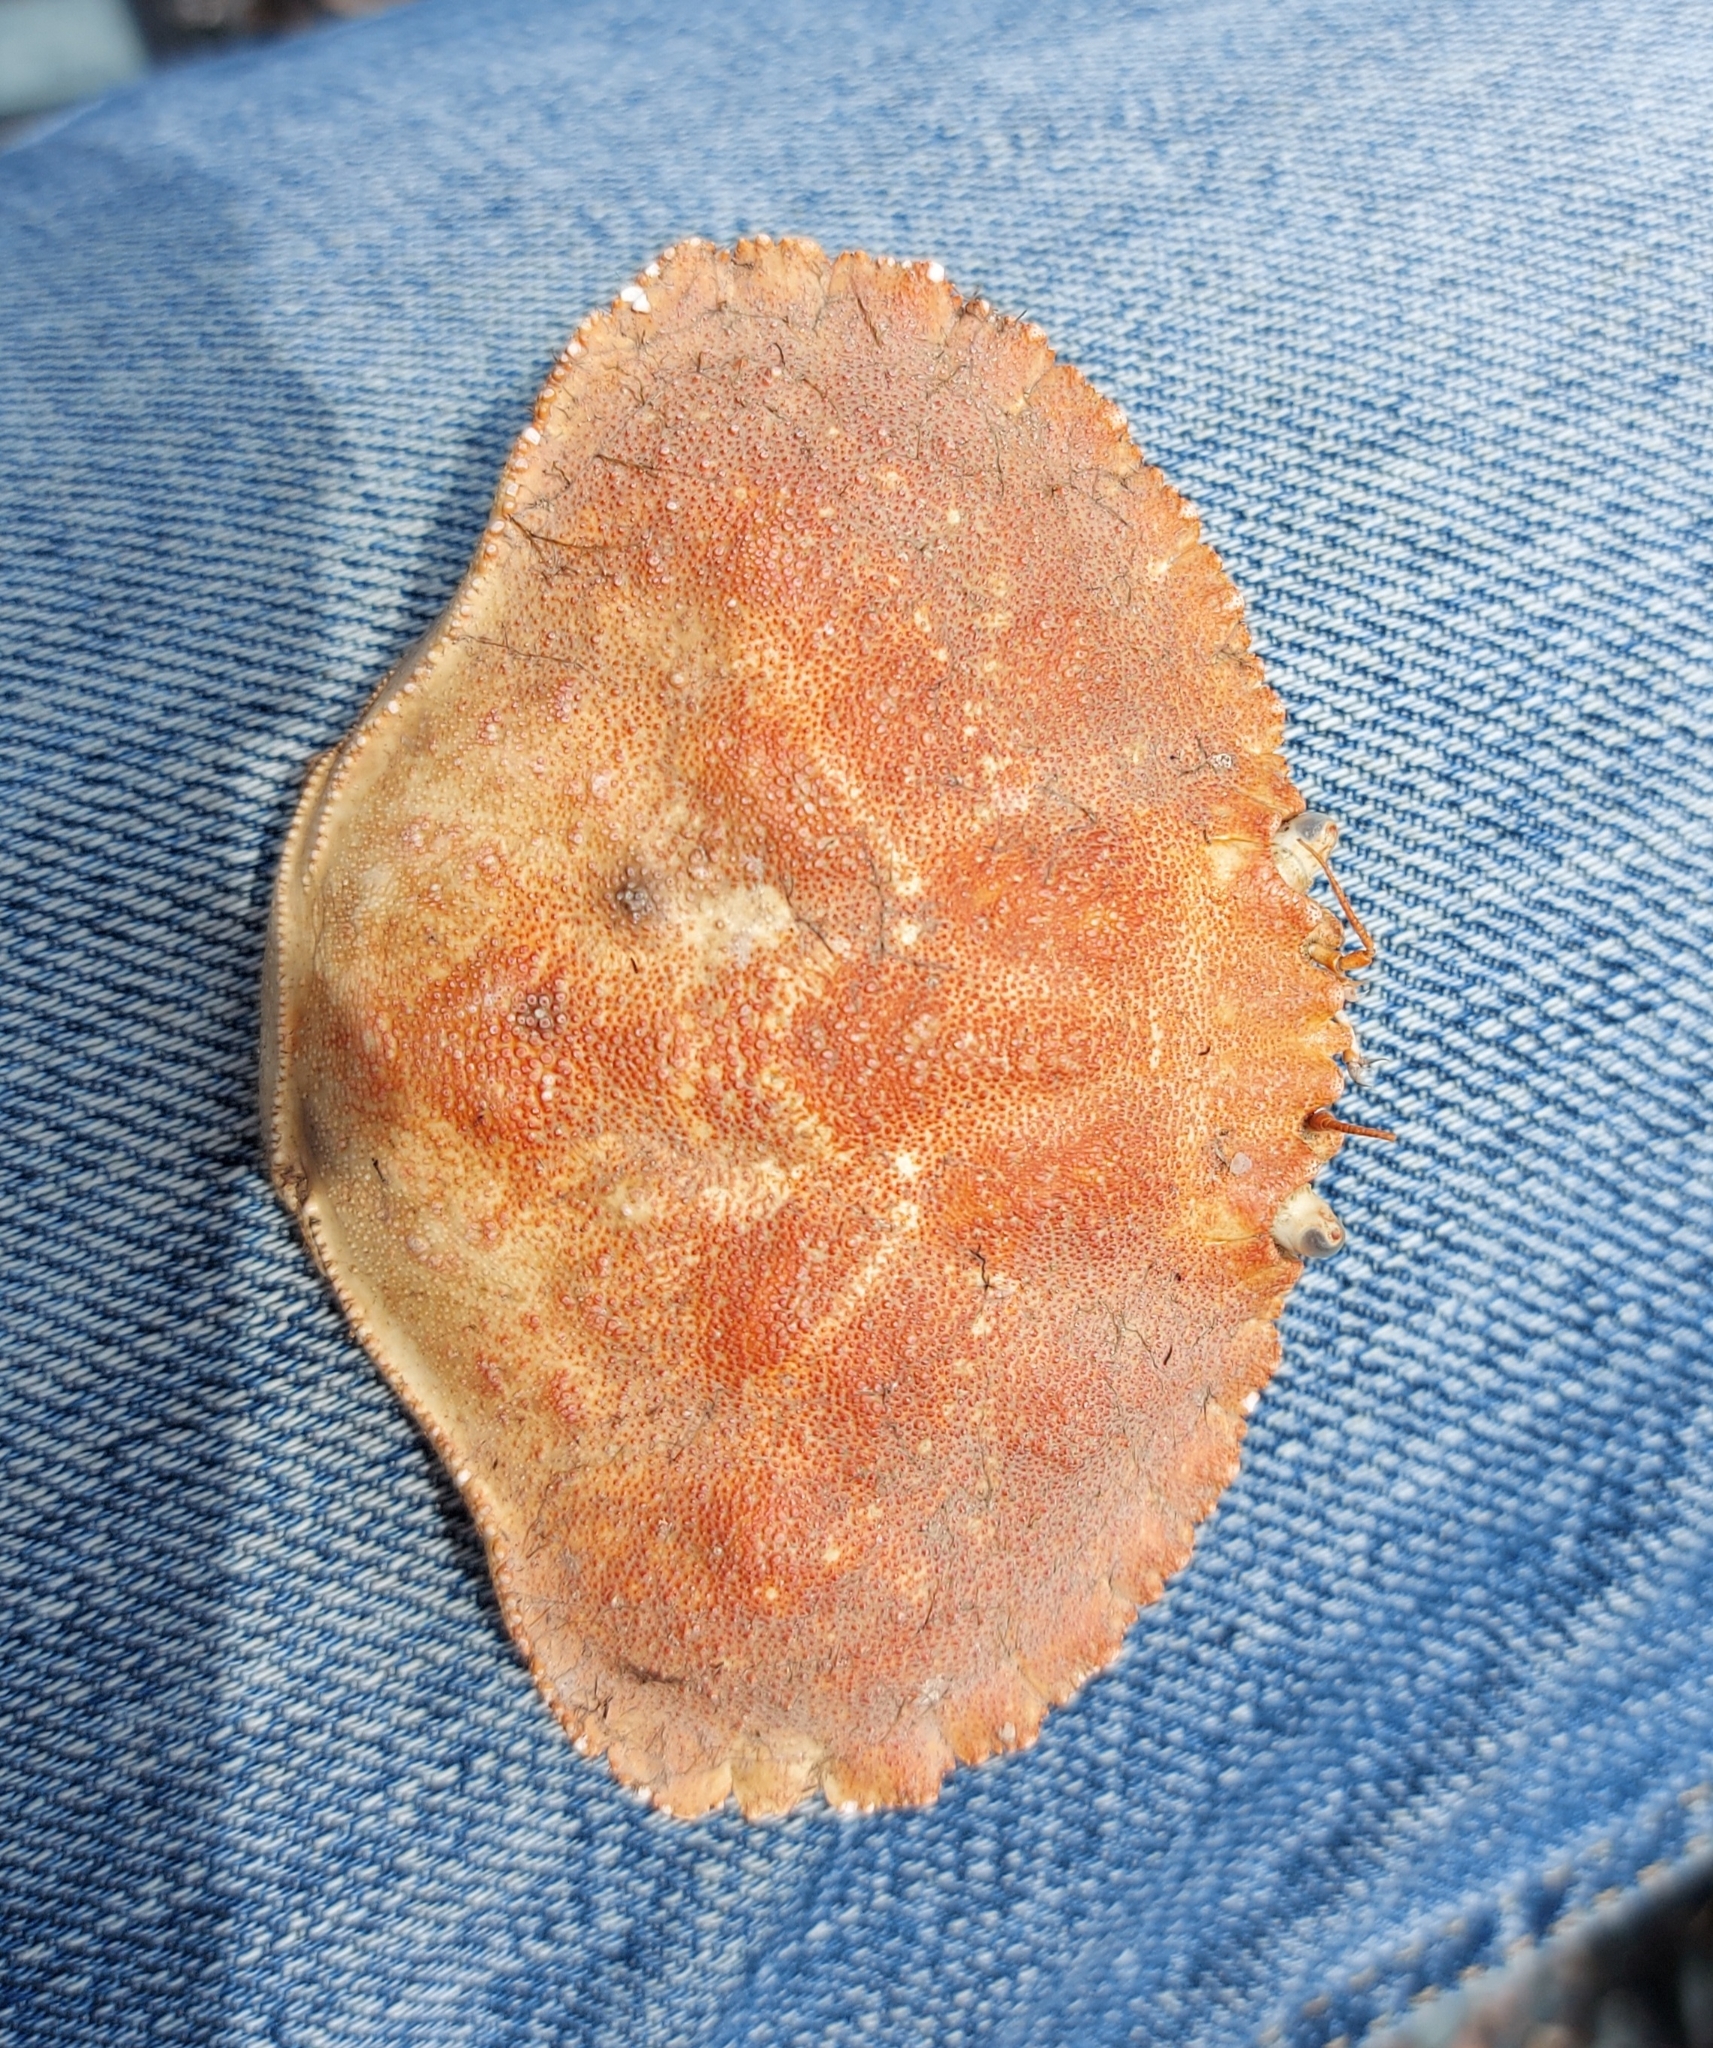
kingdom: Animalia
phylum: Arthropoda
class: Malacostraca
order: Decapoda
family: Cancridae
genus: Cancer
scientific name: Cancer borealis
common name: Jonah crab
